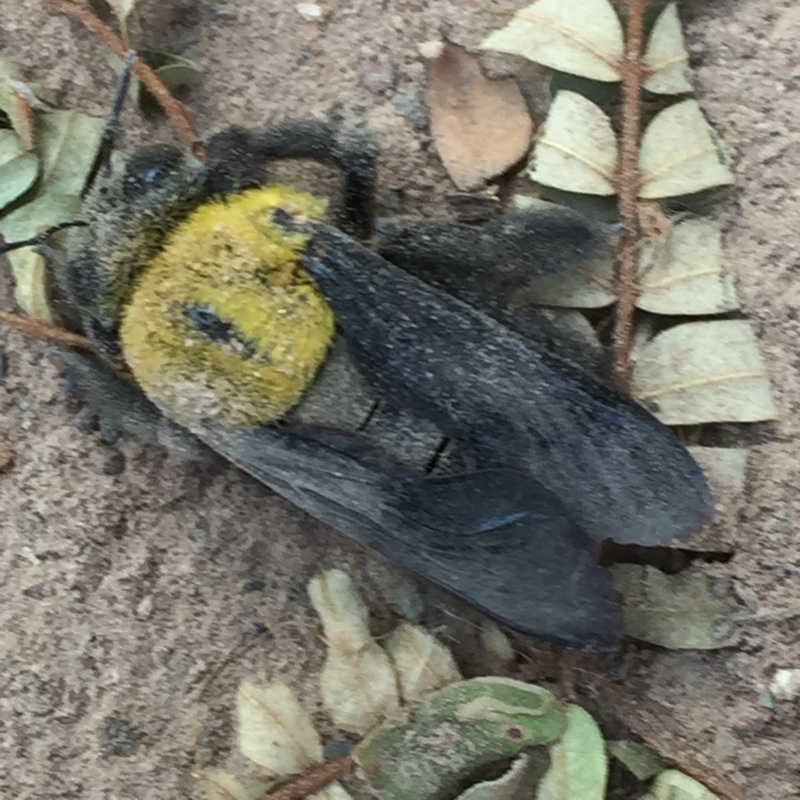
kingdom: Animalia
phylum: Arthropoda
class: Insecta
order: Hymenoptera
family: Apidae
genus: Xylocopa
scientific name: Xylocopa minor
